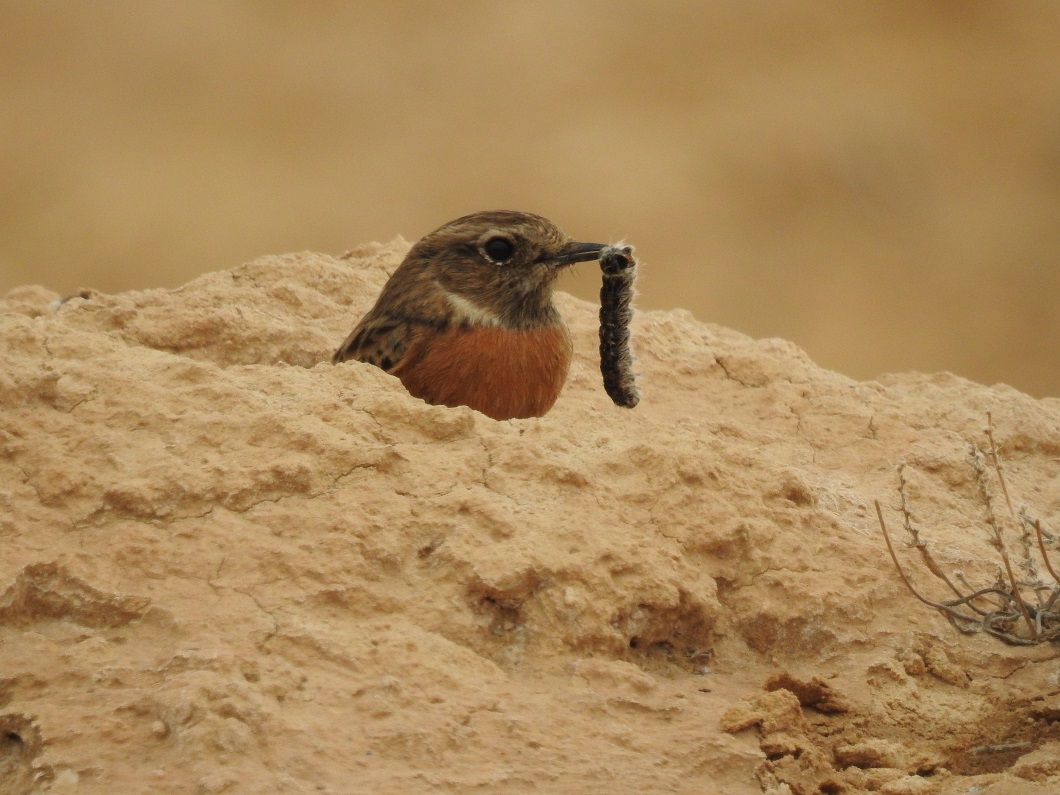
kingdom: Animalia
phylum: Chordata
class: Aves
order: Passeriformes
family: Muscicapidae
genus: Saxicola
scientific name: Saxicola rubicola
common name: European stonechat
